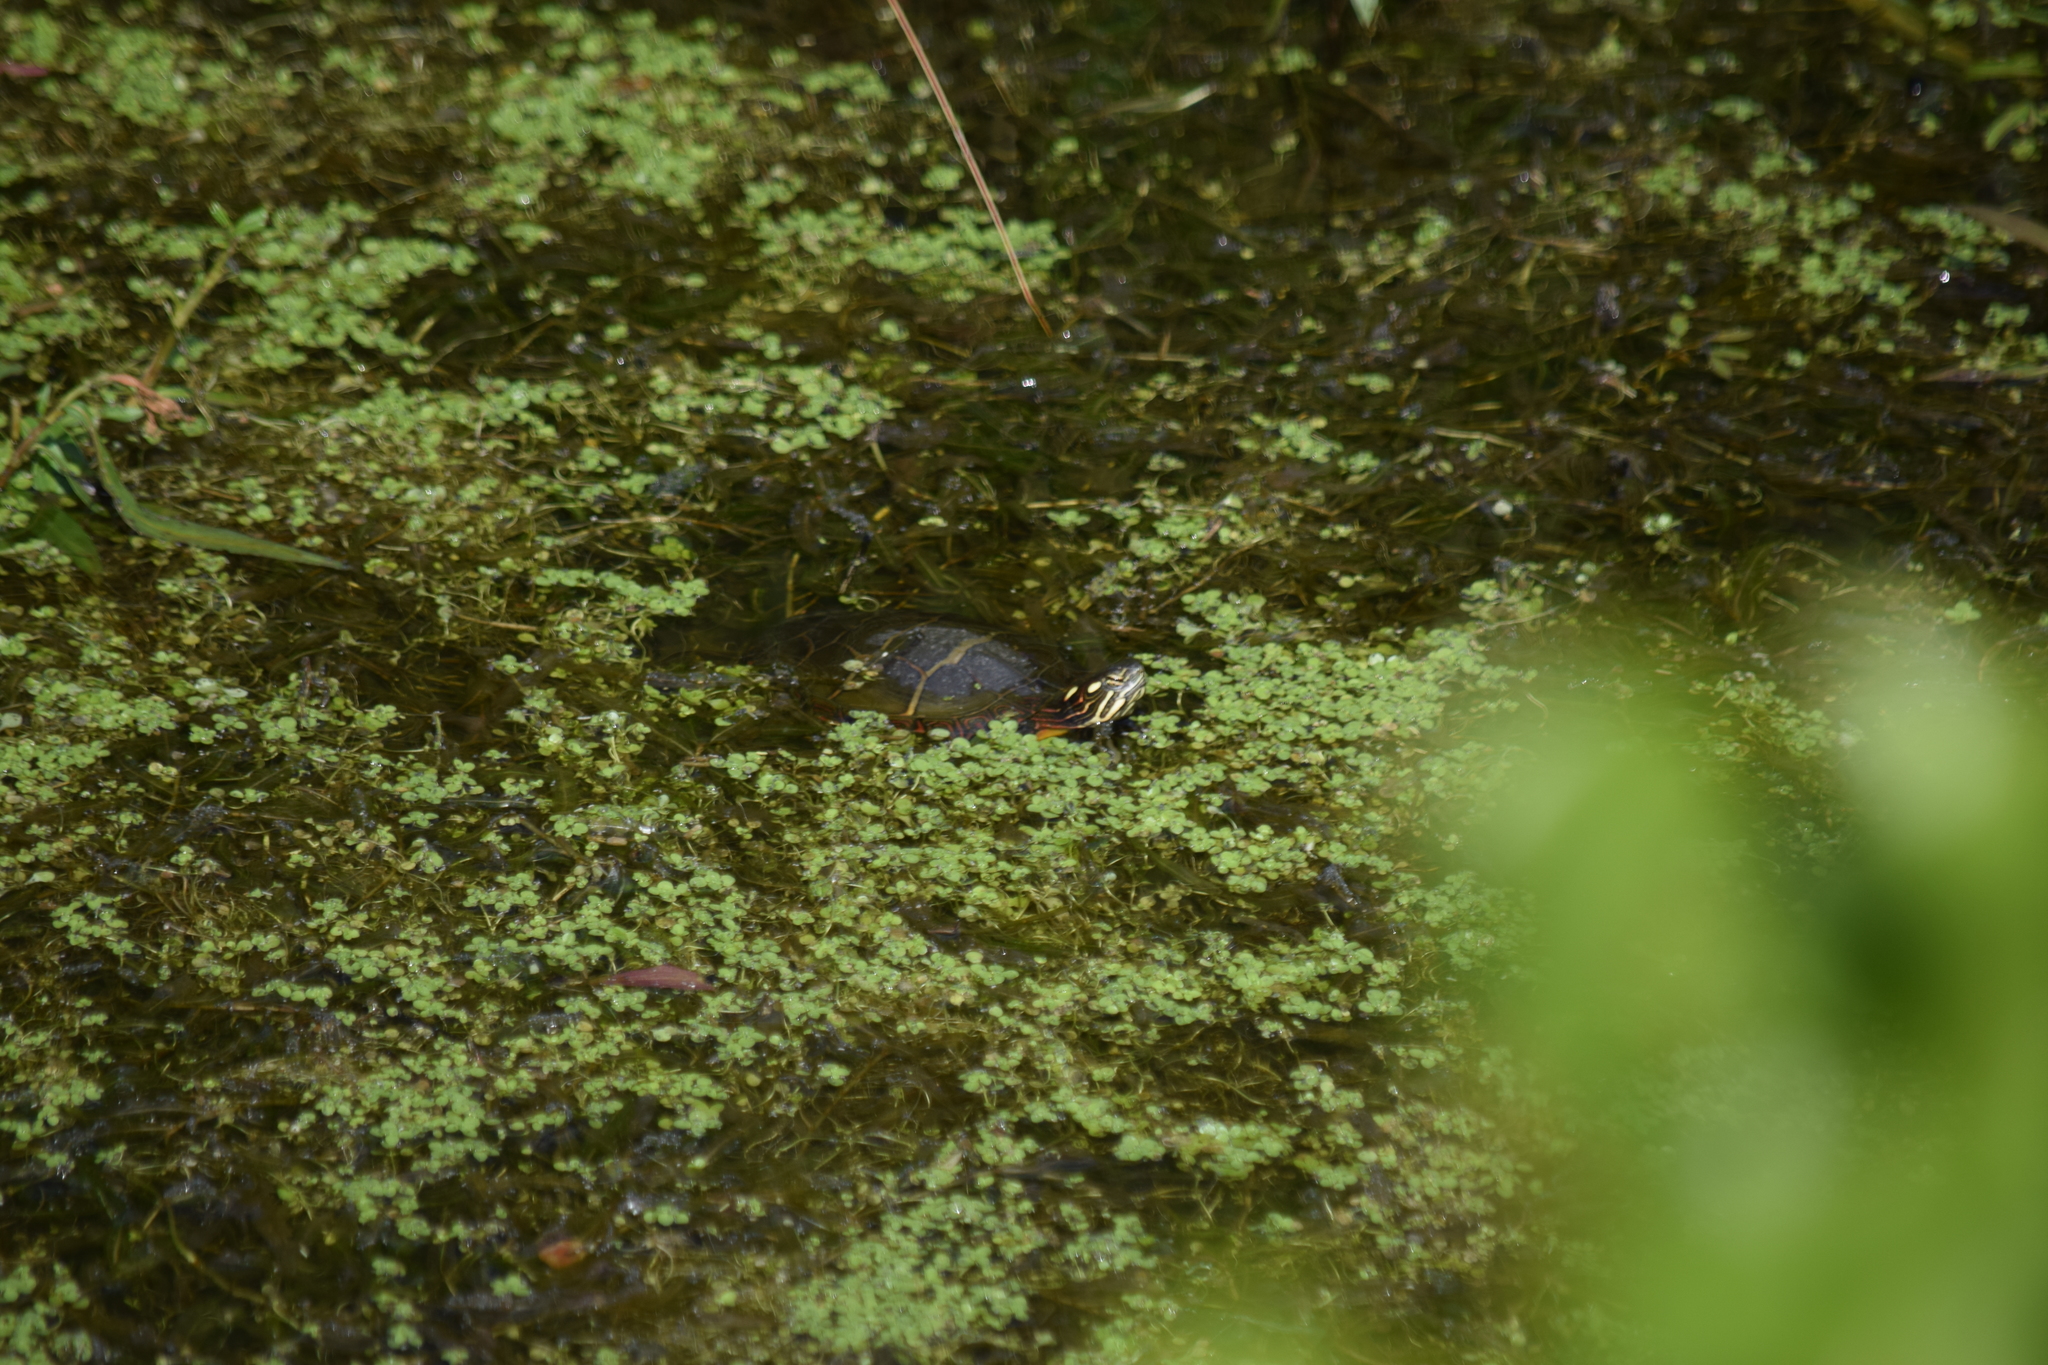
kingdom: Animalia
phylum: Chordata
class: Testudines
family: Emydidae
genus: Chrysemys
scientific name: Chrysemys picta
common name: Painted turtle
